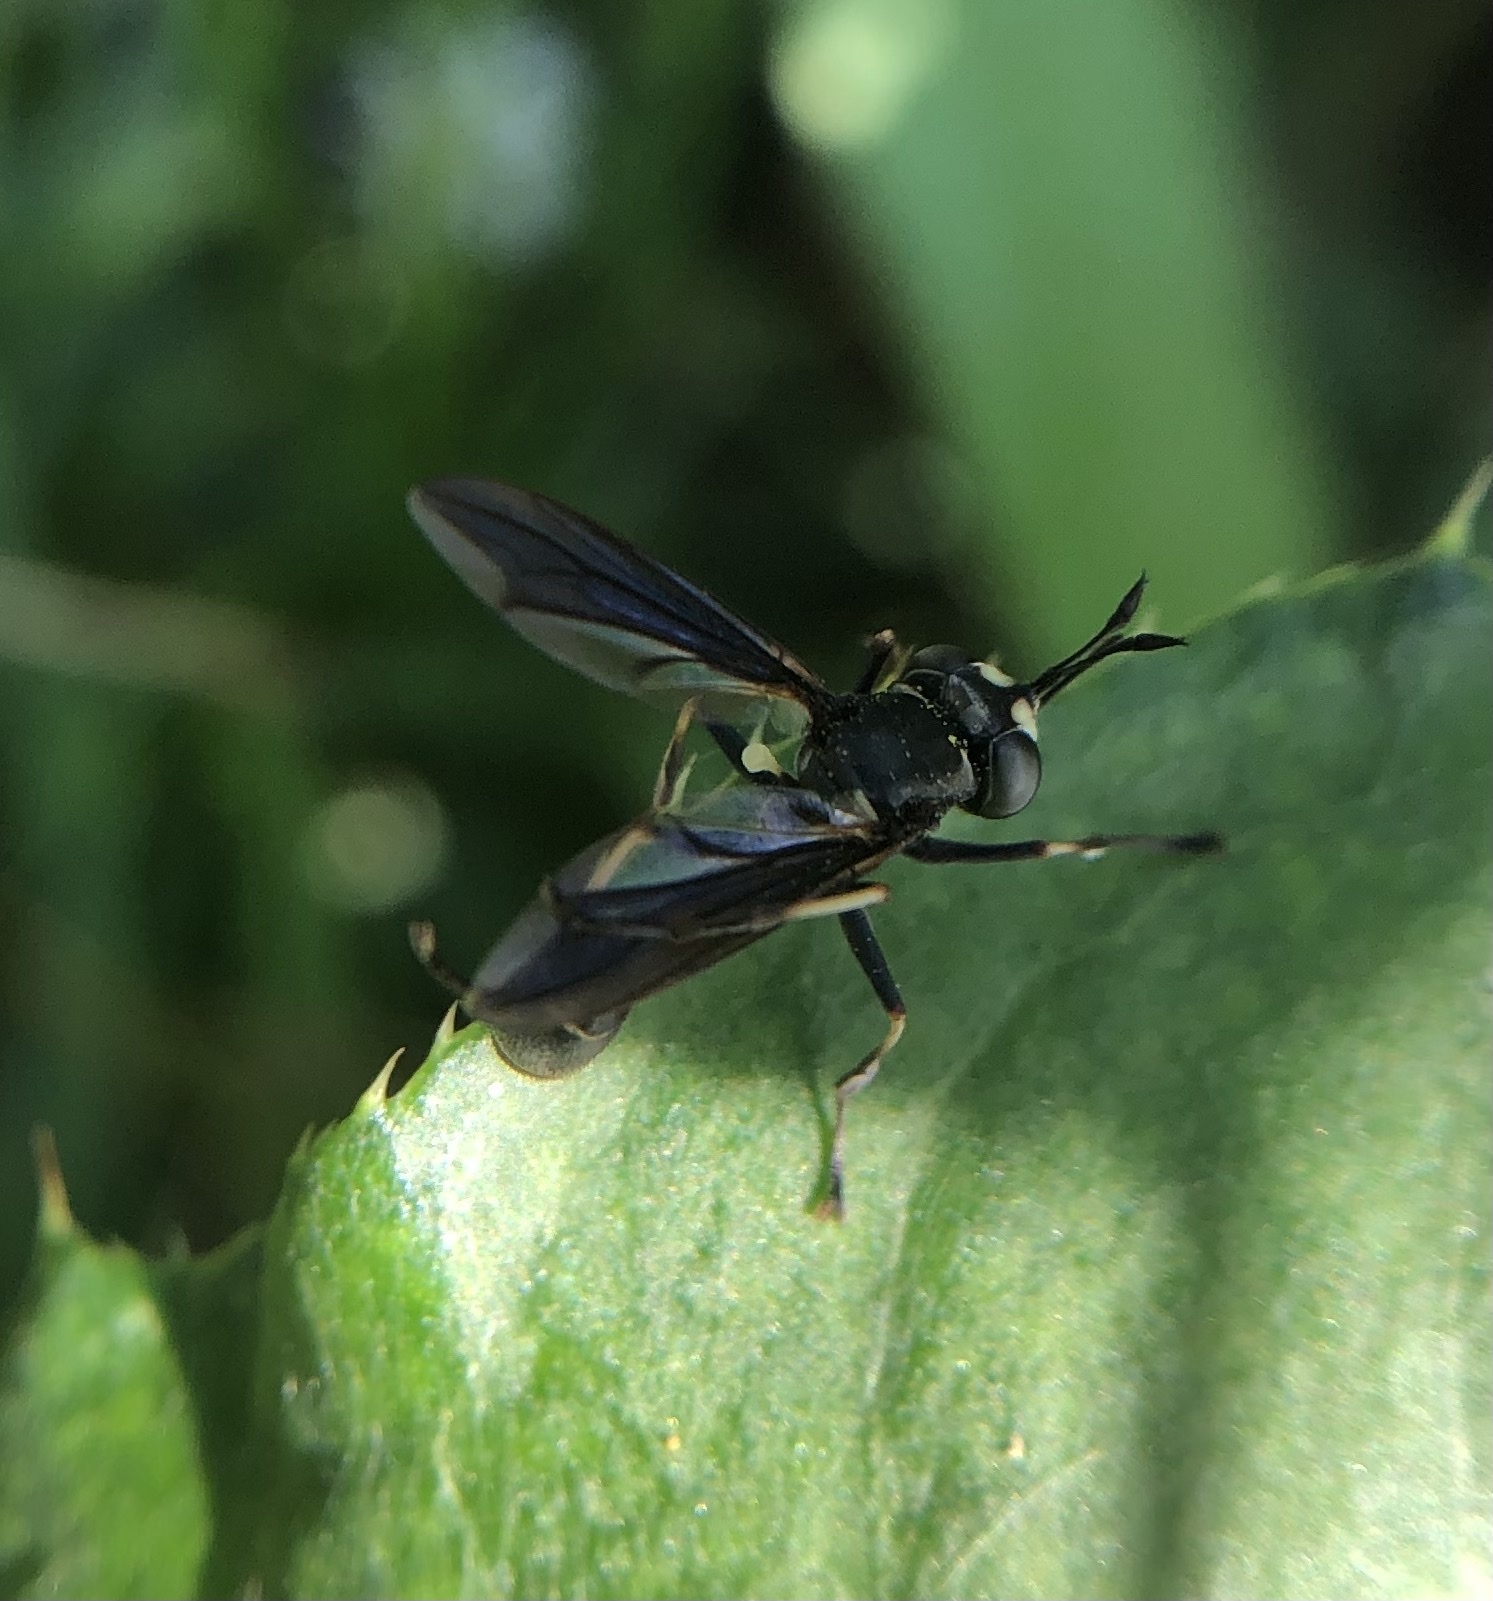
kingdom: Animalia
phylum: Arthropoda
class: Insecta
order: Diptera
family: Conopidae
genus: Physocephala
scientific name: Physocephala tibialis
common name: Common eastern physocephala
